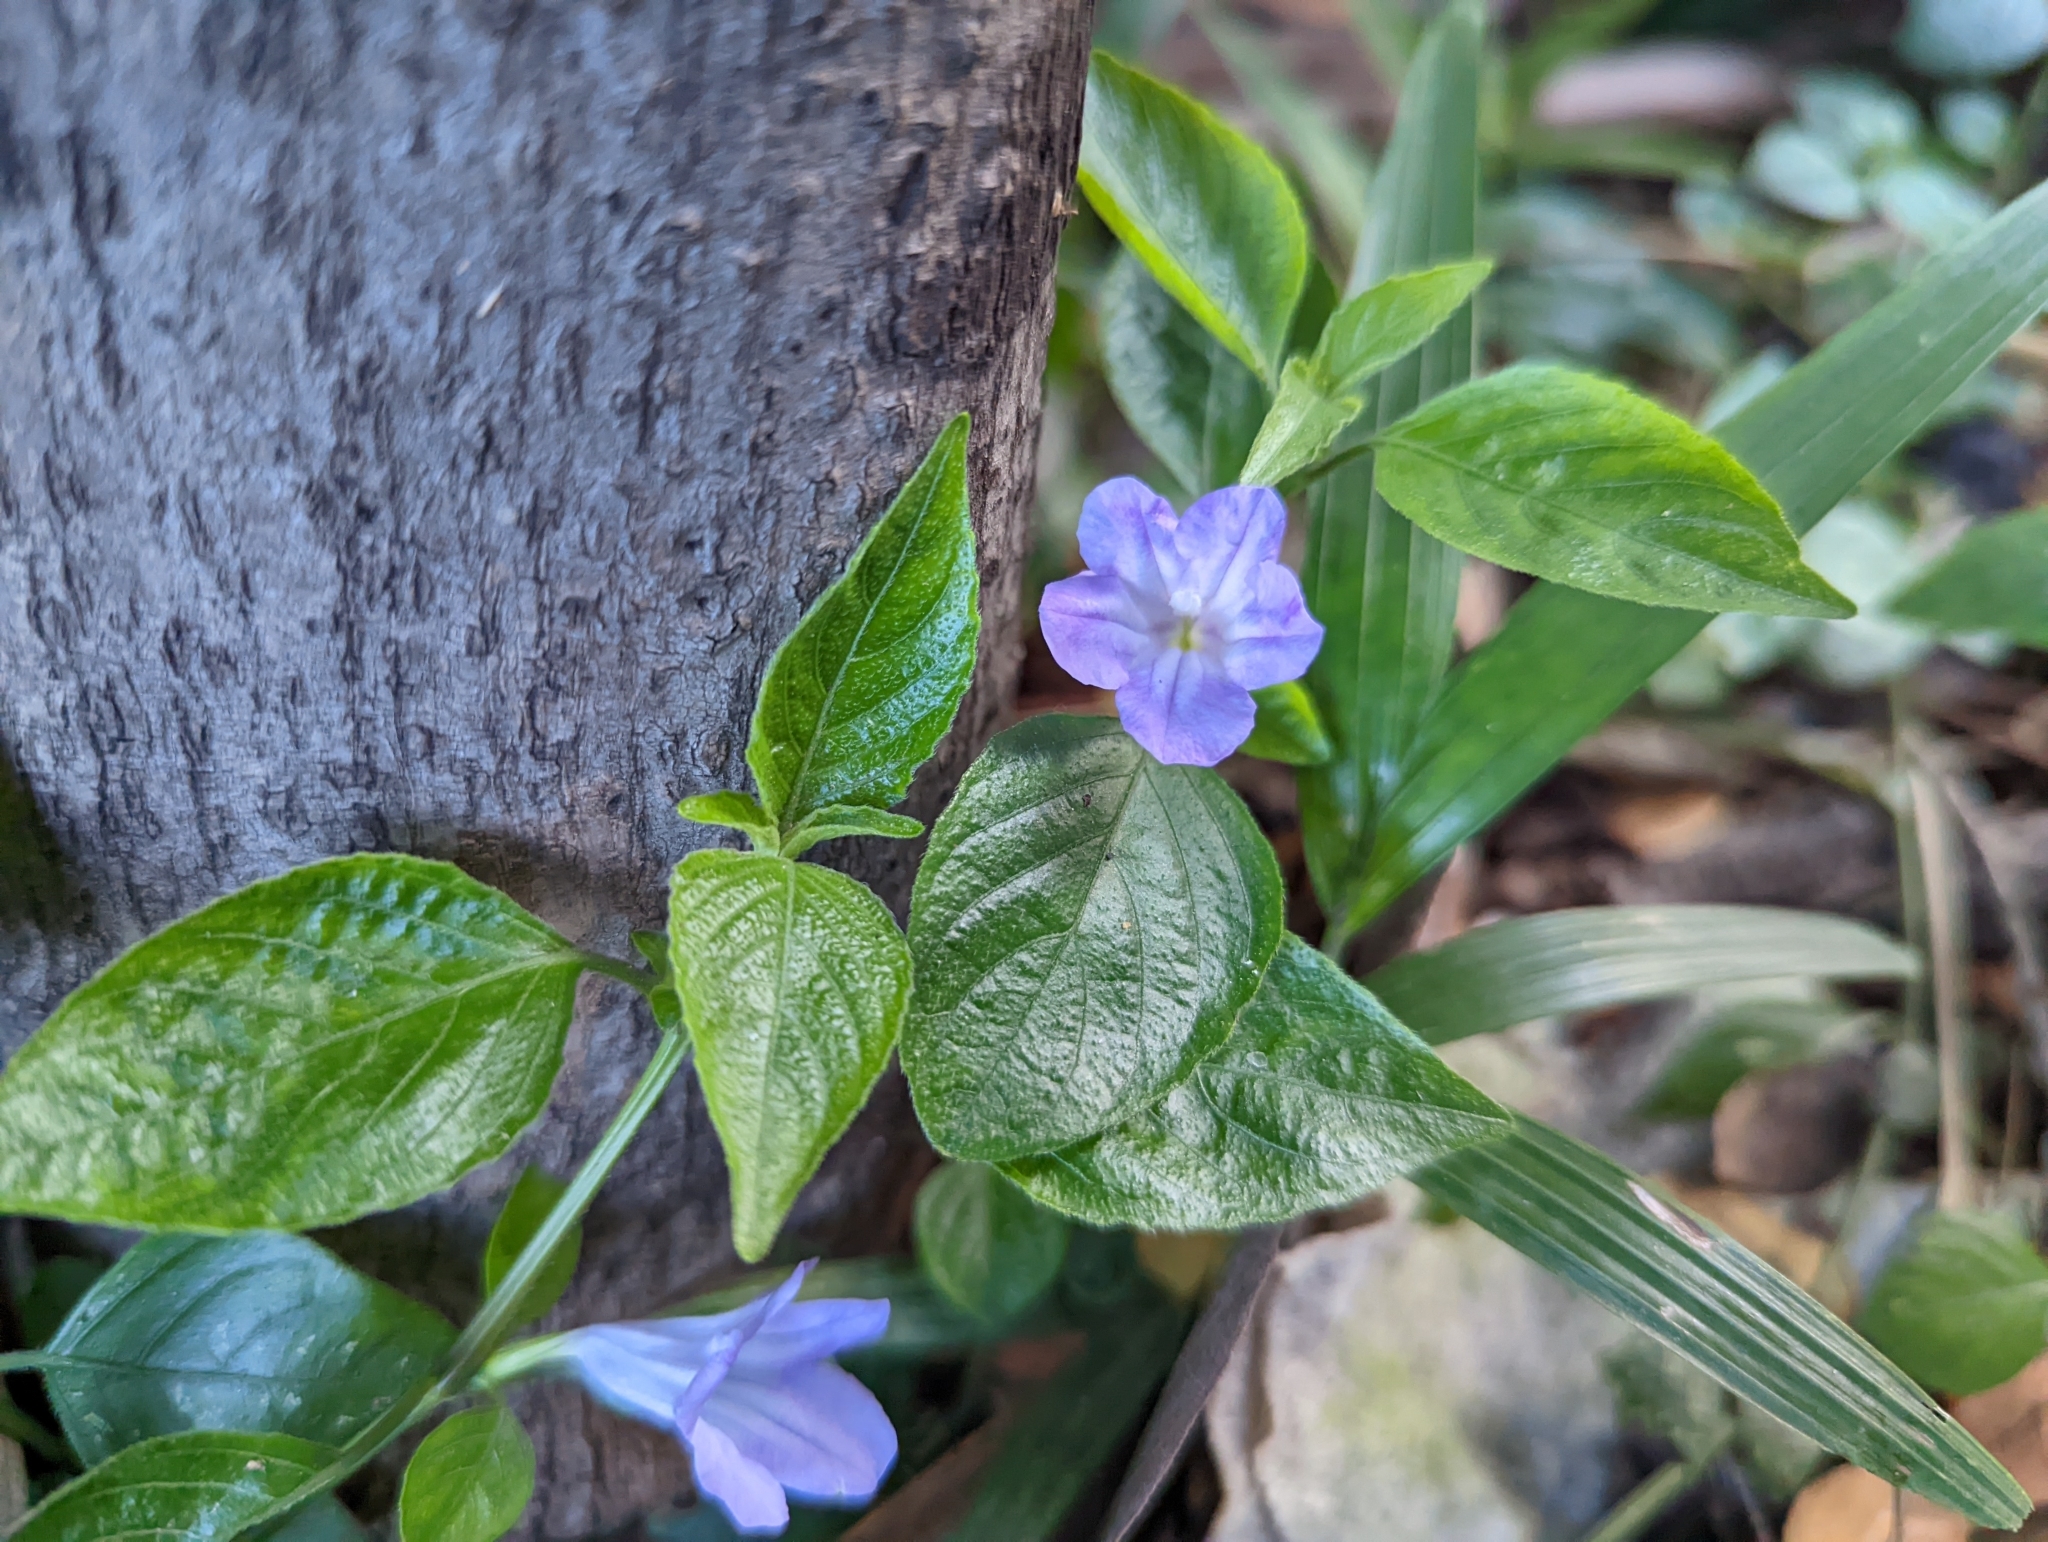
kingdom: Plantae
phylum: Tracheophyta
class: Magnoliopsida
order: Lamiales
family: Acanthaceae
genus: Ruellia
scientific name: Ruellia prostrata
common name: Prostrate wild petunia
